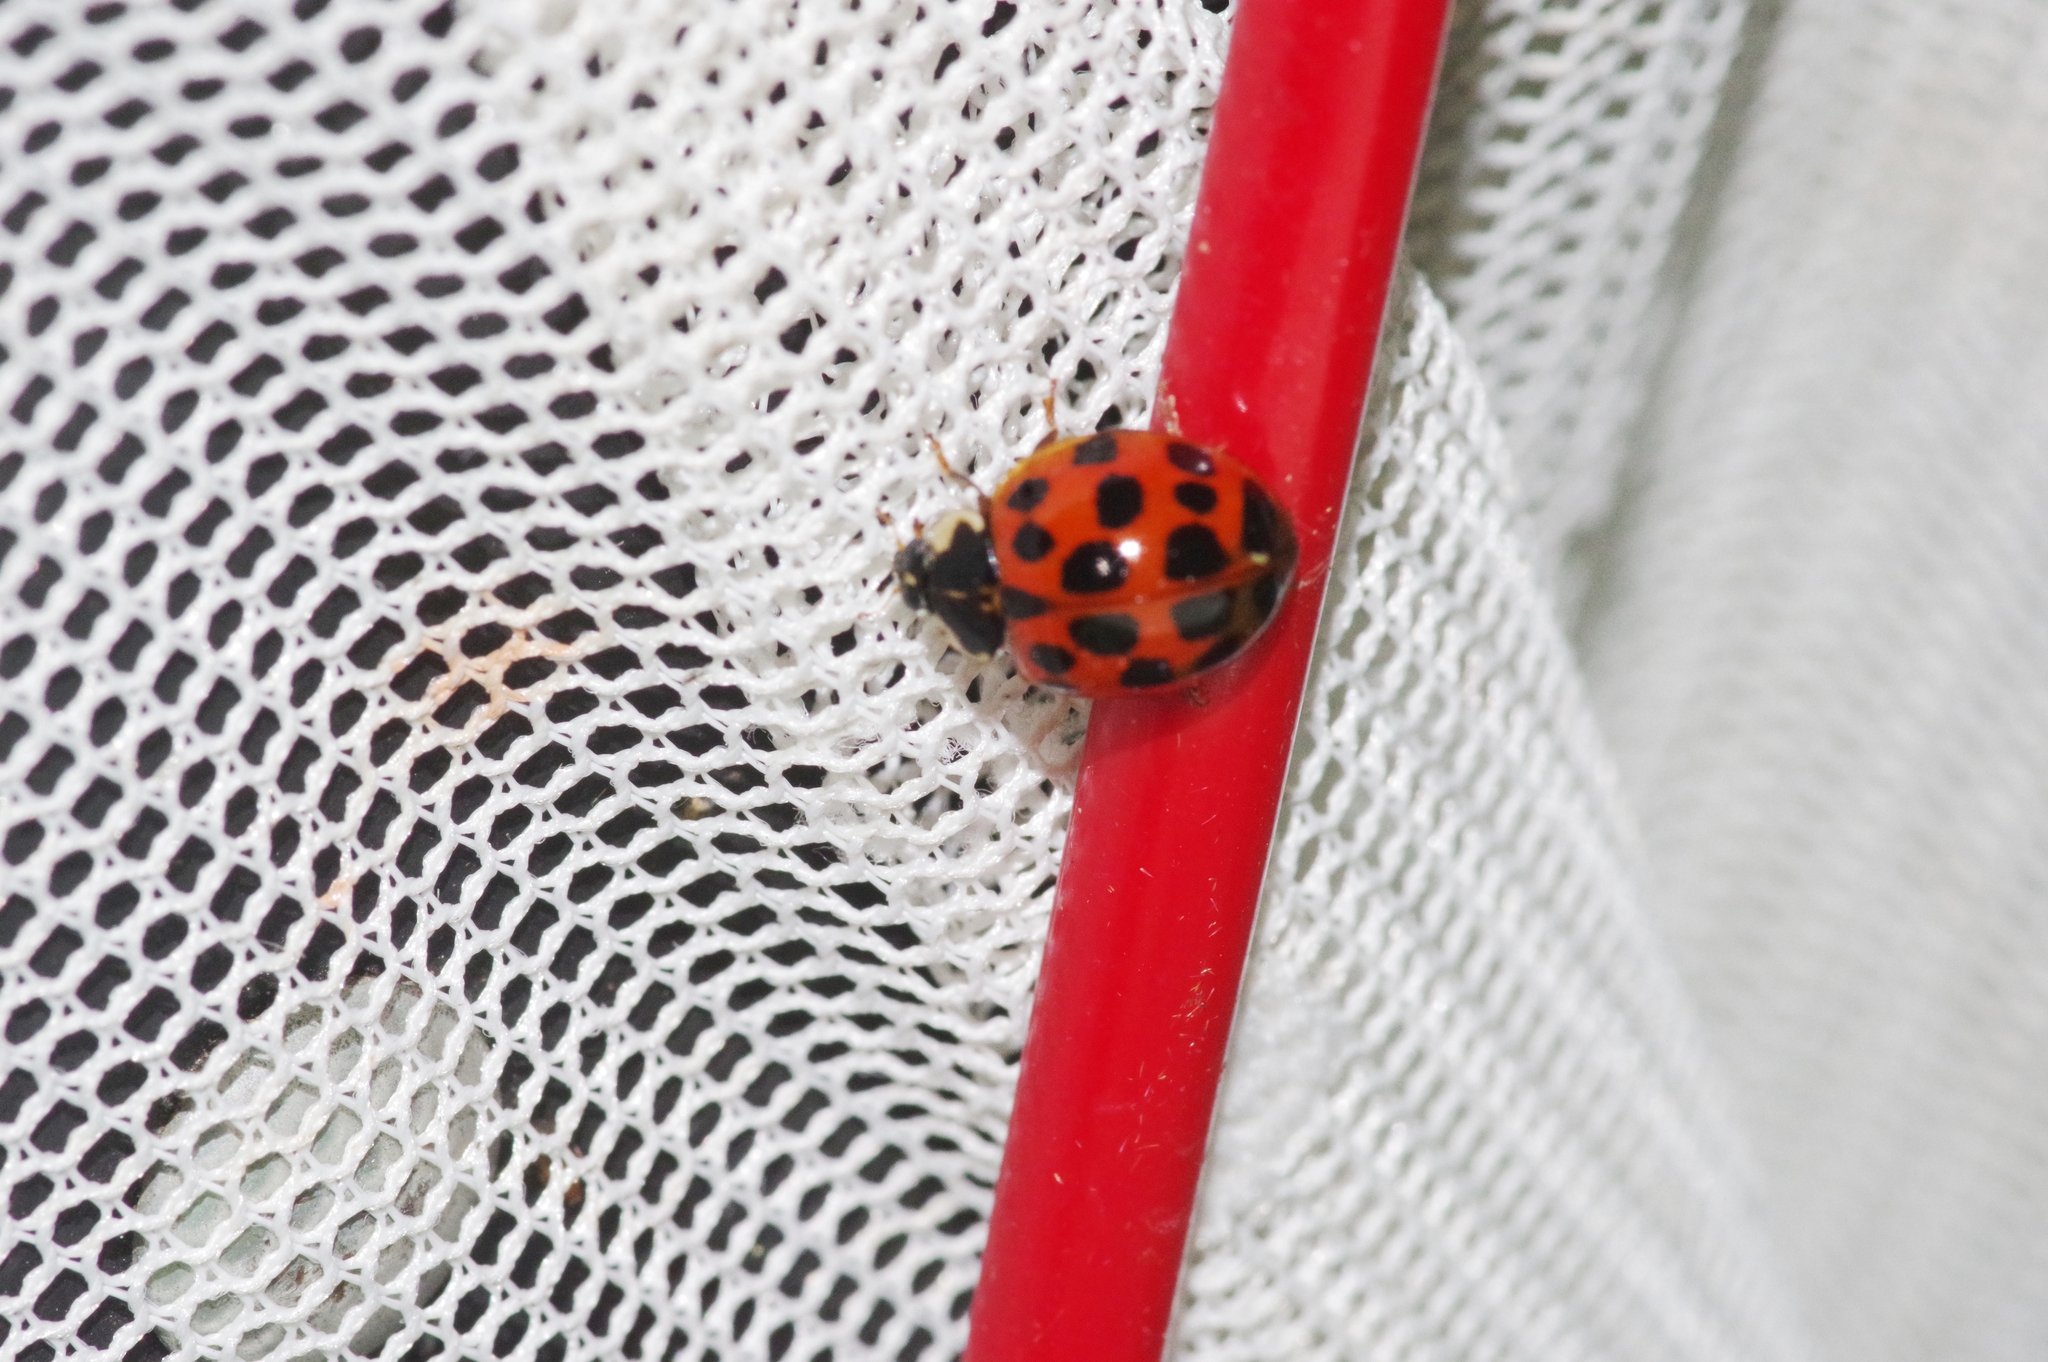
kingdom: Animalia
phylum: Arthropoda
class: Insecta
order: Coleoptera
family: Coccinellidae
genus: Harmonia
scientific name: Harmonia axyridis
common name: Harlequin ladybird
